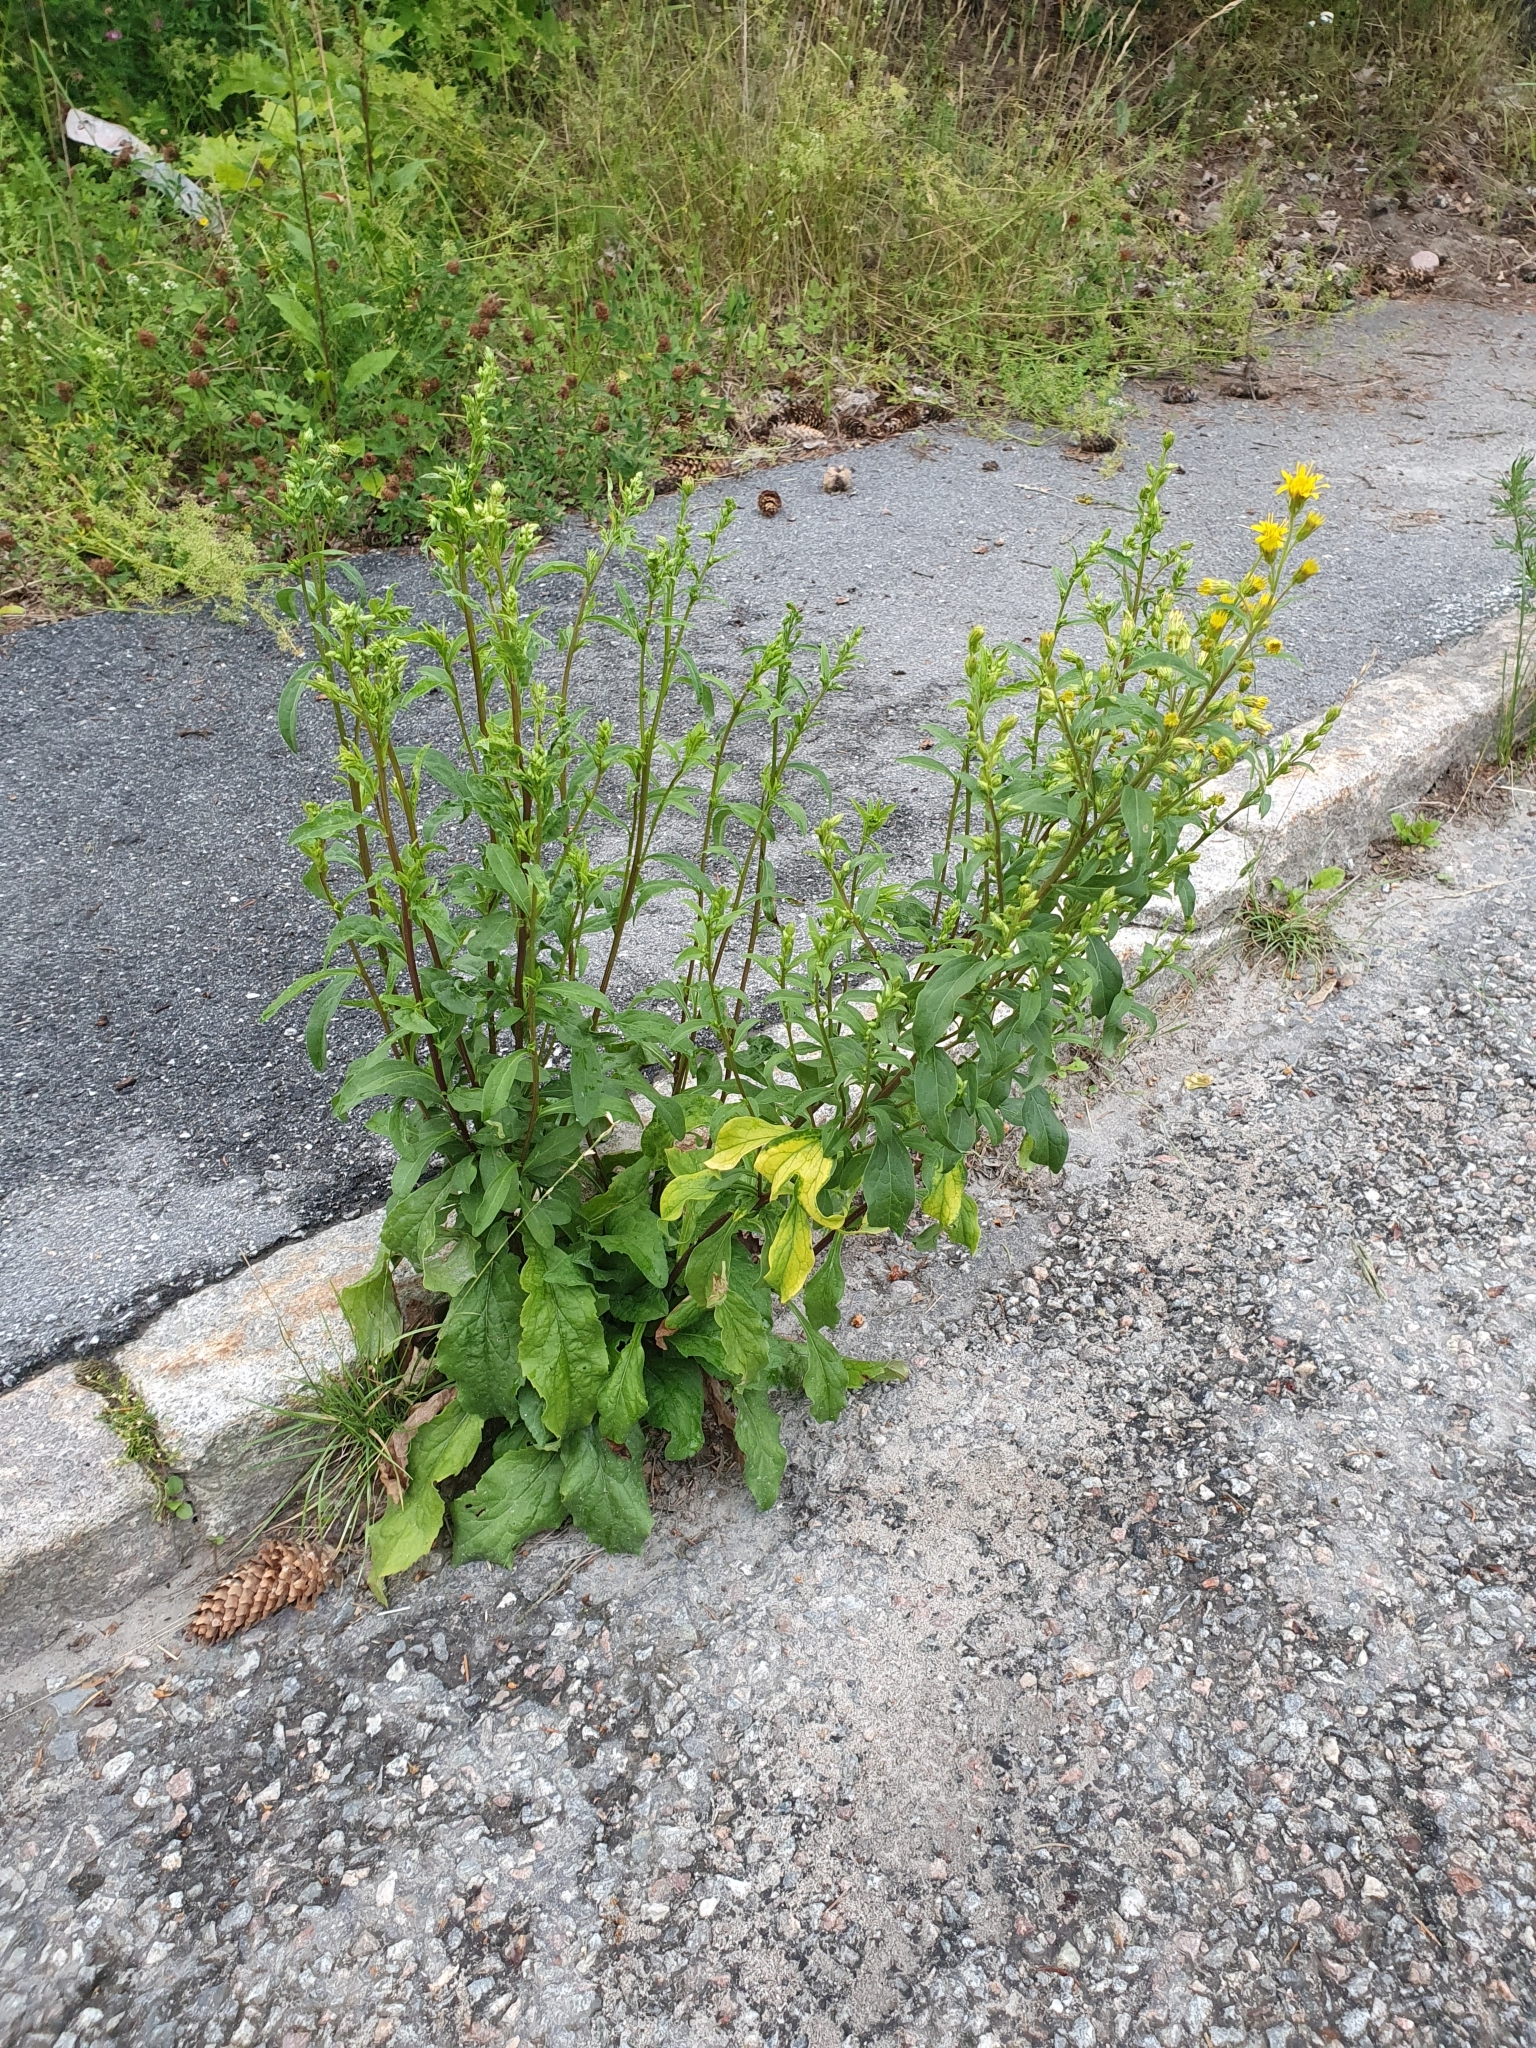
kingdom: Plantae
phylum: Tracheophyta
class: Magnoliopsida
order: Asterales
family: Asteraceae
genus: Solidago
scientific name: Solidago virgaurea
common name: Goldenrod
